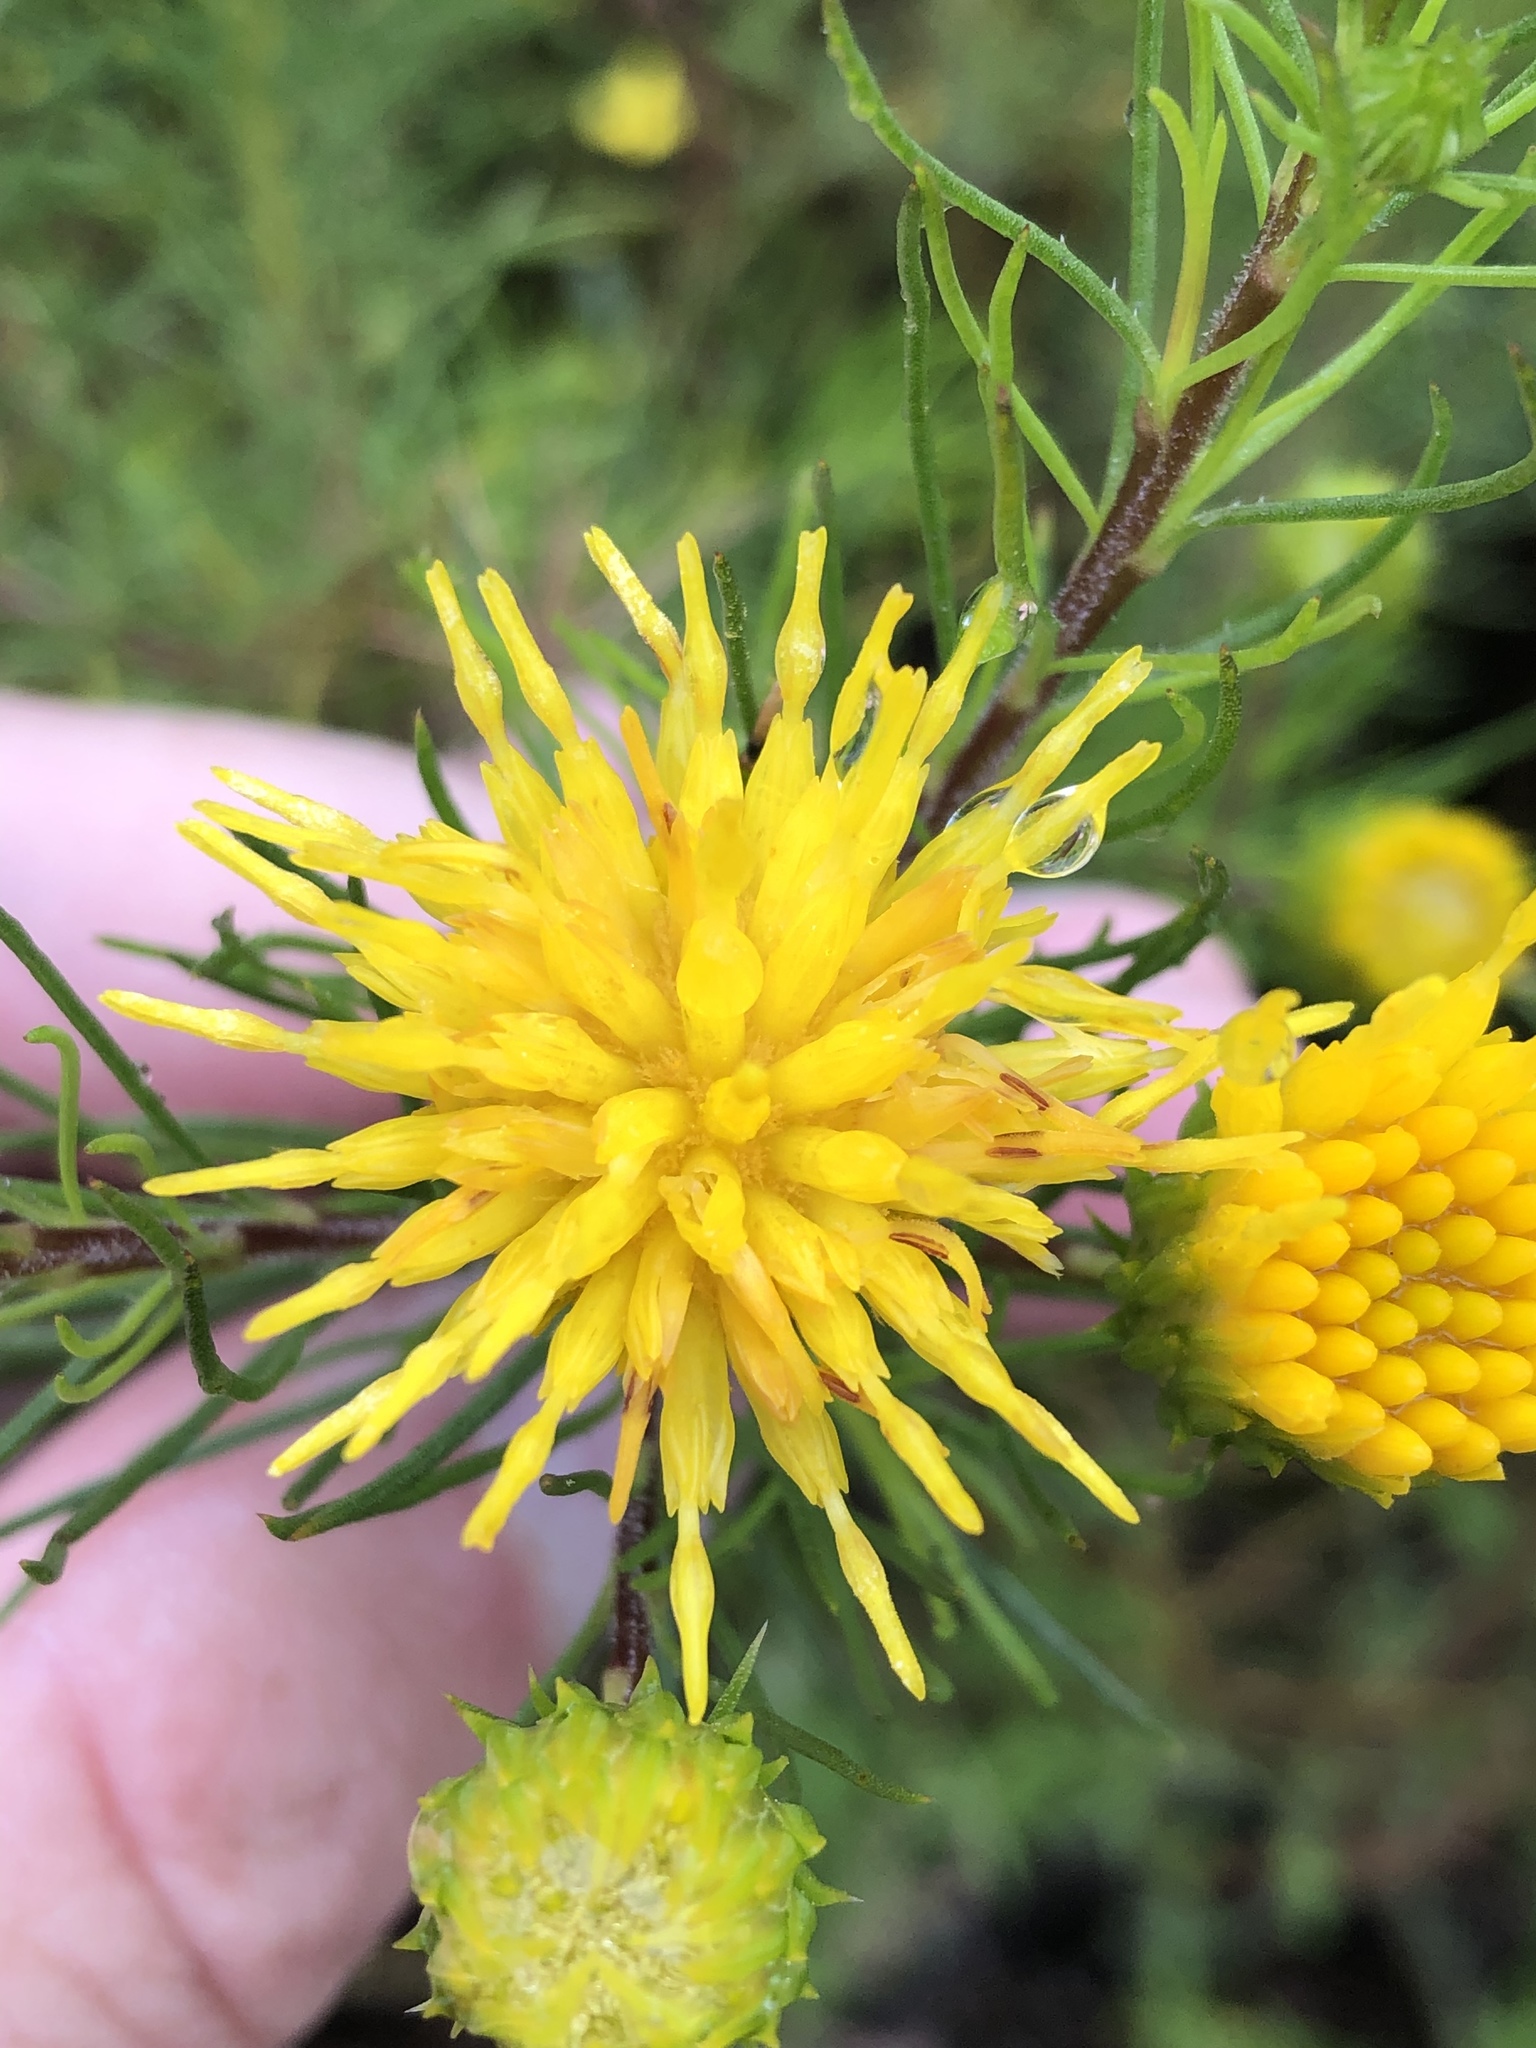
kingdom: Plantae
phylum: Tracheophyta
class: Magnoliopsida
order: Asterales
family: Asteraceae
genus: Pteronia
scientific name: Pteronia camphorata
